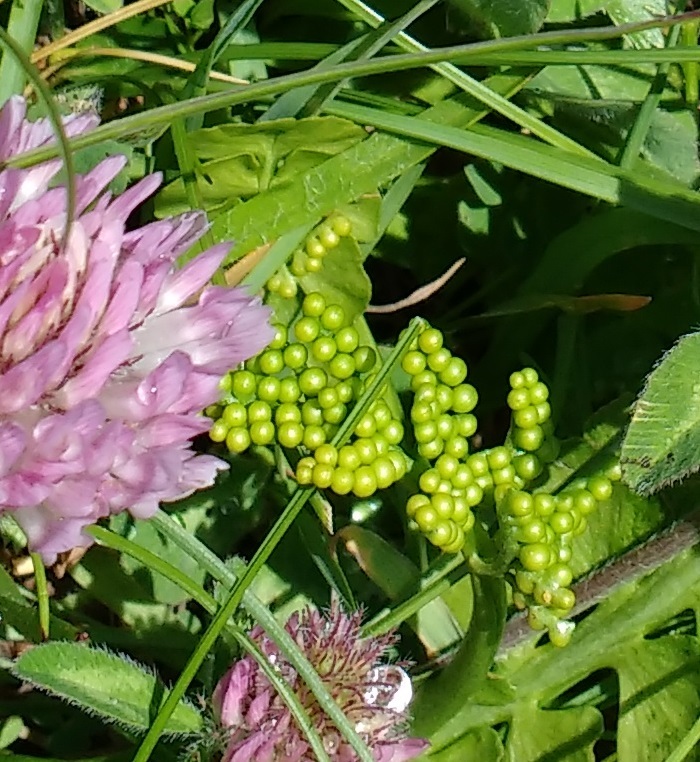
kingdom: Plantae
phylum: Tracheophyta
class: Polypodiopsida
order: Ophioglossales
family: Ophioglossaceae
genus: Botrychium
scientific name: Botrychium lunaria
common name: Moonwort
